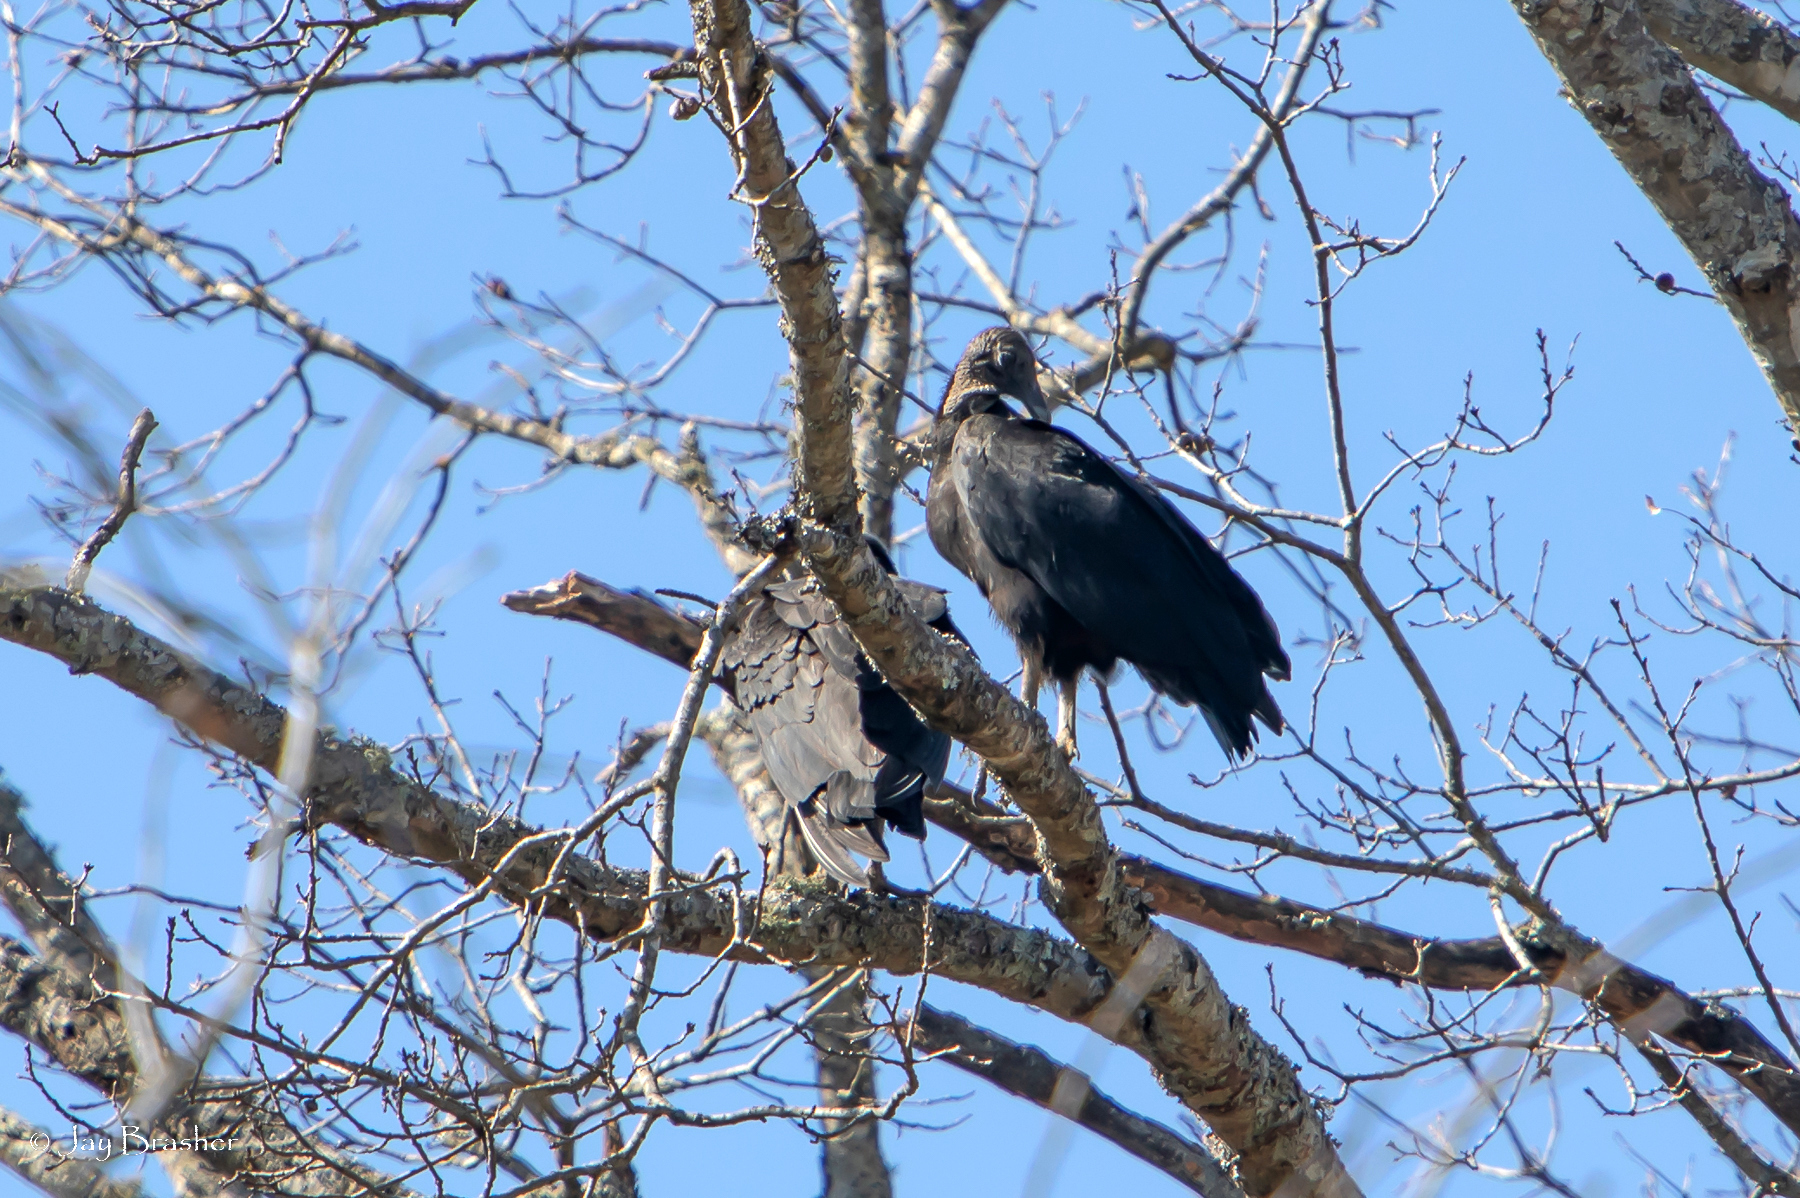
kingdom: Animalia
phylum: Chordata
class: Aves
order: Accipitriformes
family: Cathartidae
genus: Coragyps
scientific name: Coragyps atratus
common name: Black vulture
